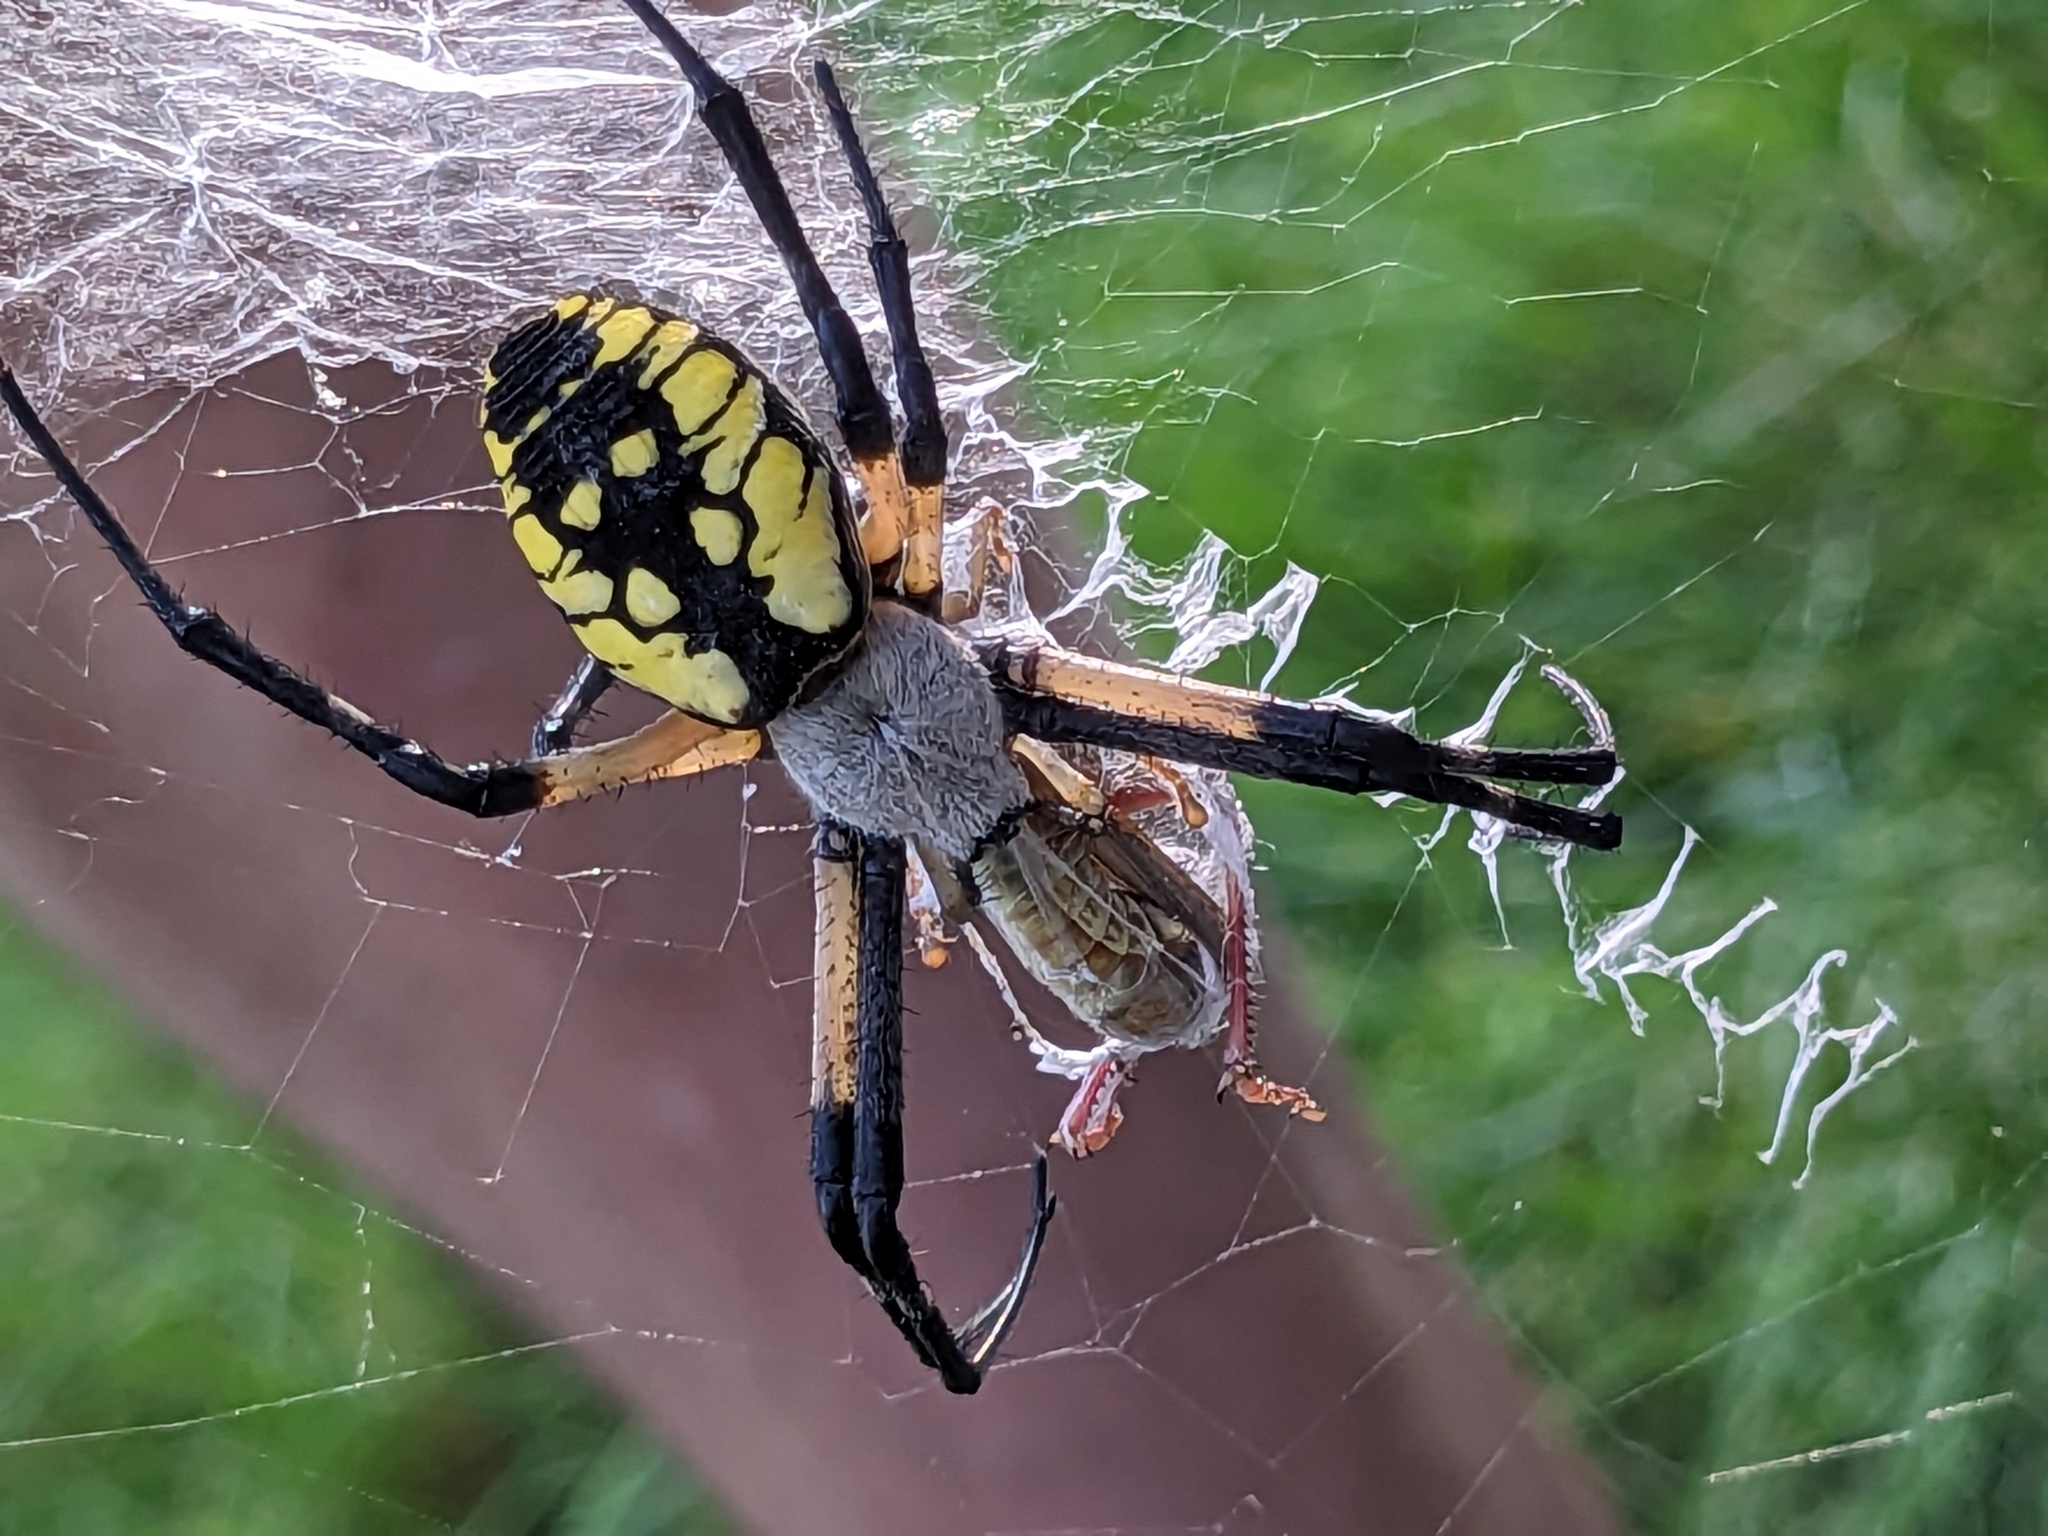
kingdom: Animalia
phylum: Arthropoda
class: Arachnida
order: Araneae
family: Araneidae
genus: Argiope
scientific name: Argiope aurantia
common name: Orb weavers
